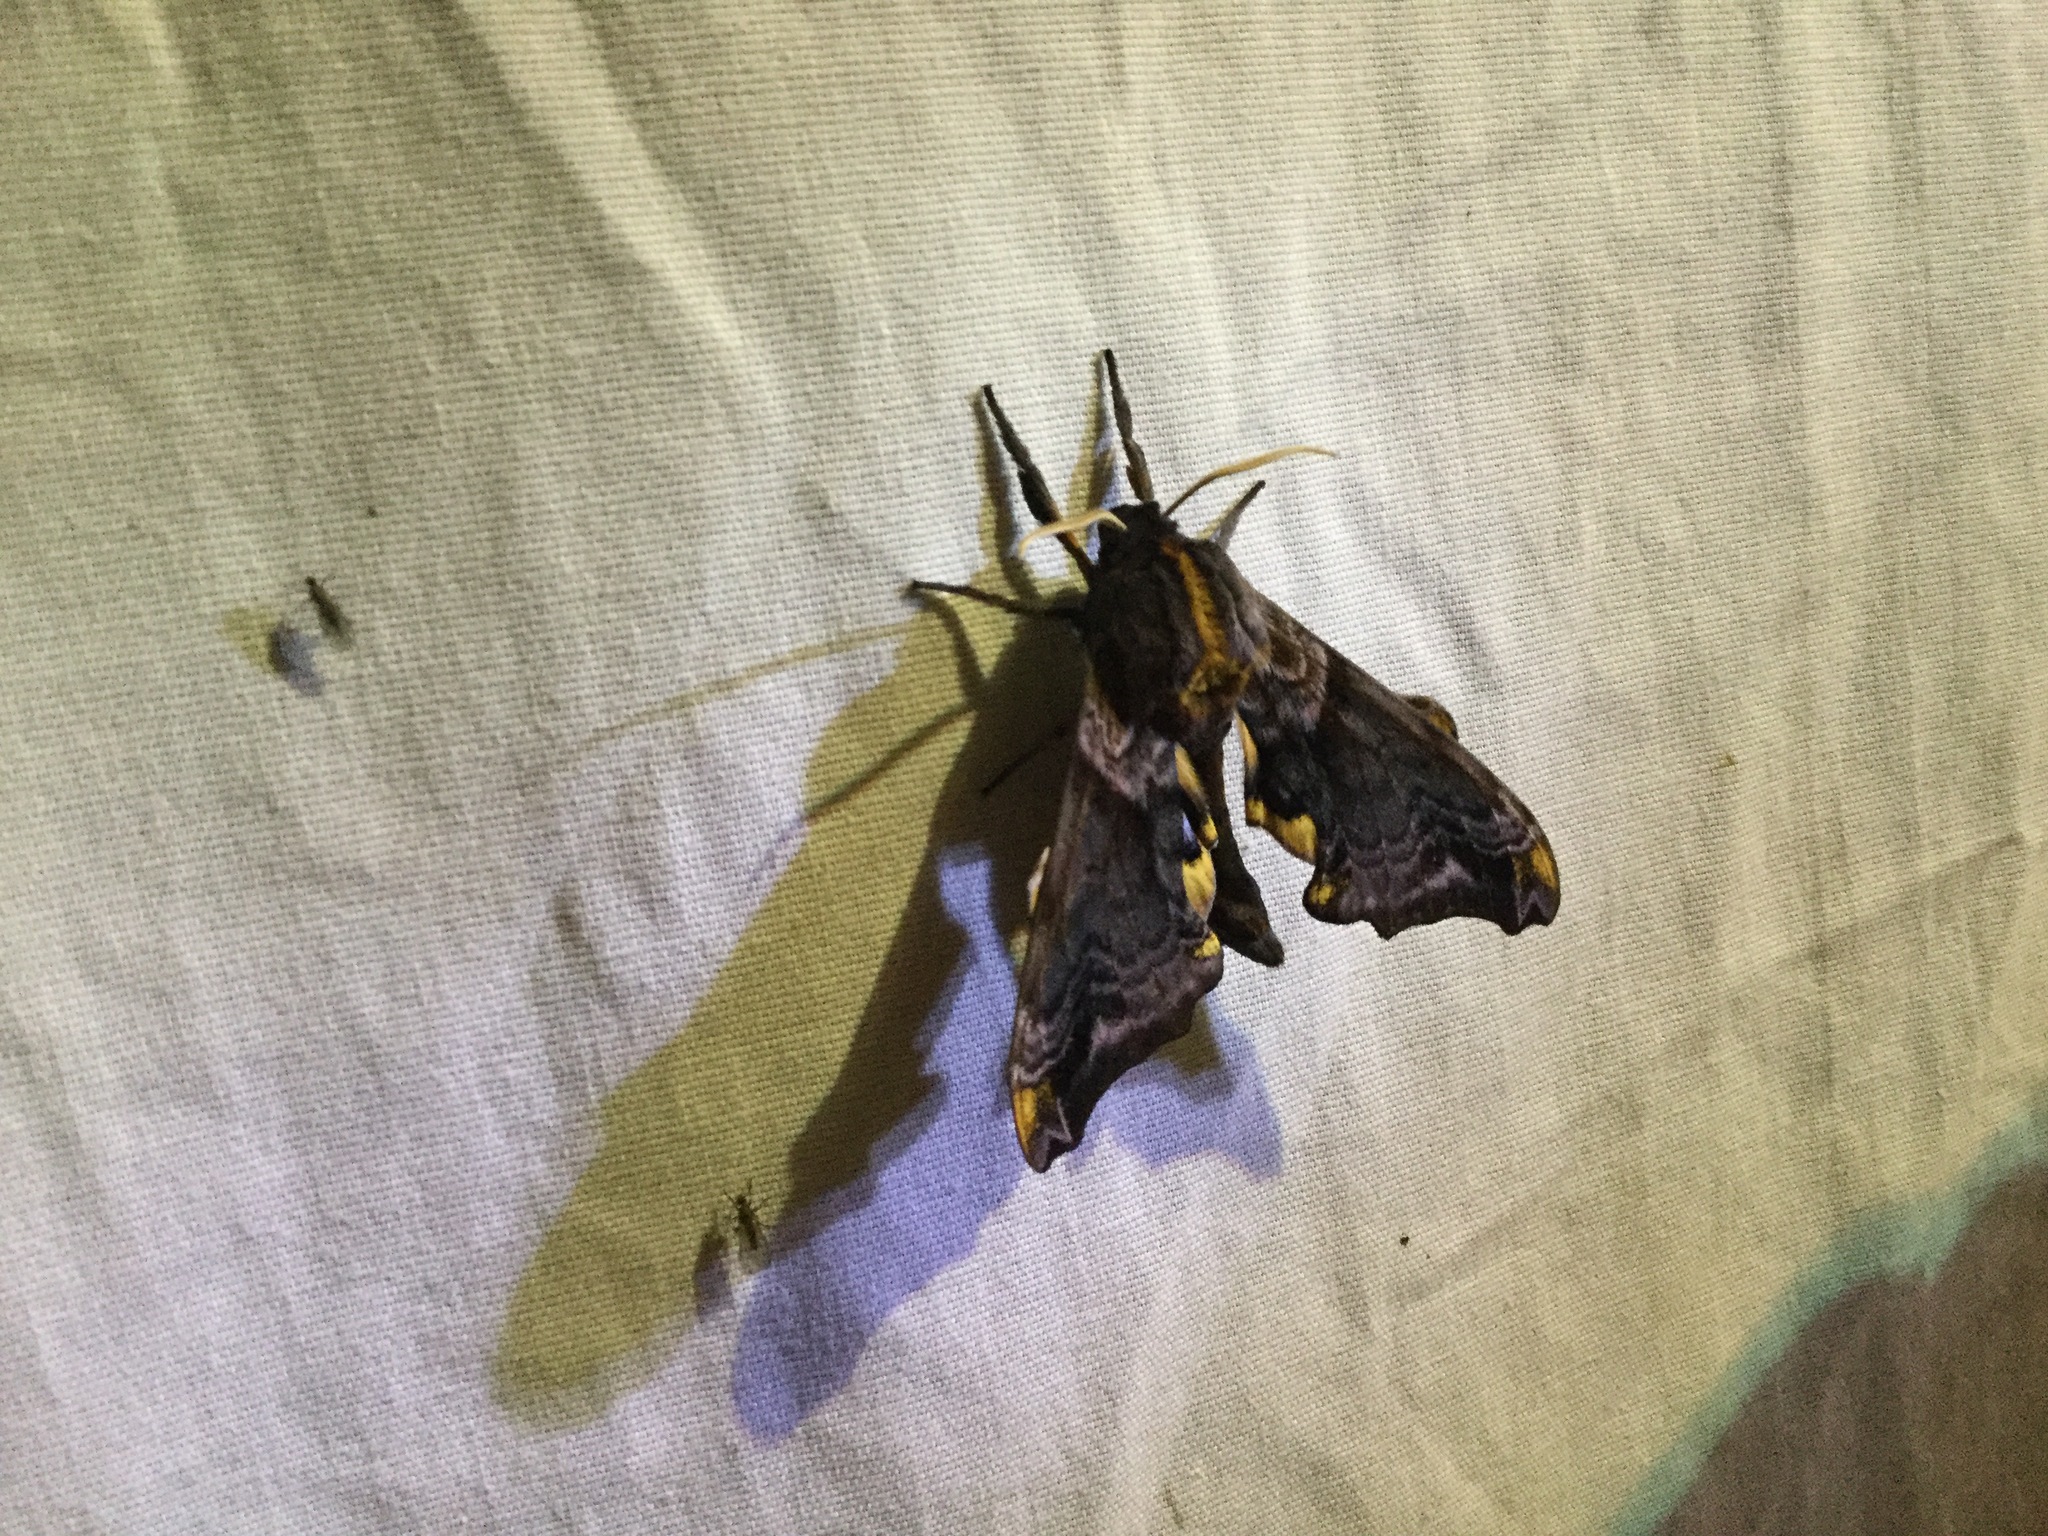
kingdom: Animalia
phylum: Arthropoda
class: Insecta
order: Lepidoptera
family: Sphingidae
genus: Paonias
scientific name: Paonias excaecata
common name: Blind-eyed sphinx
